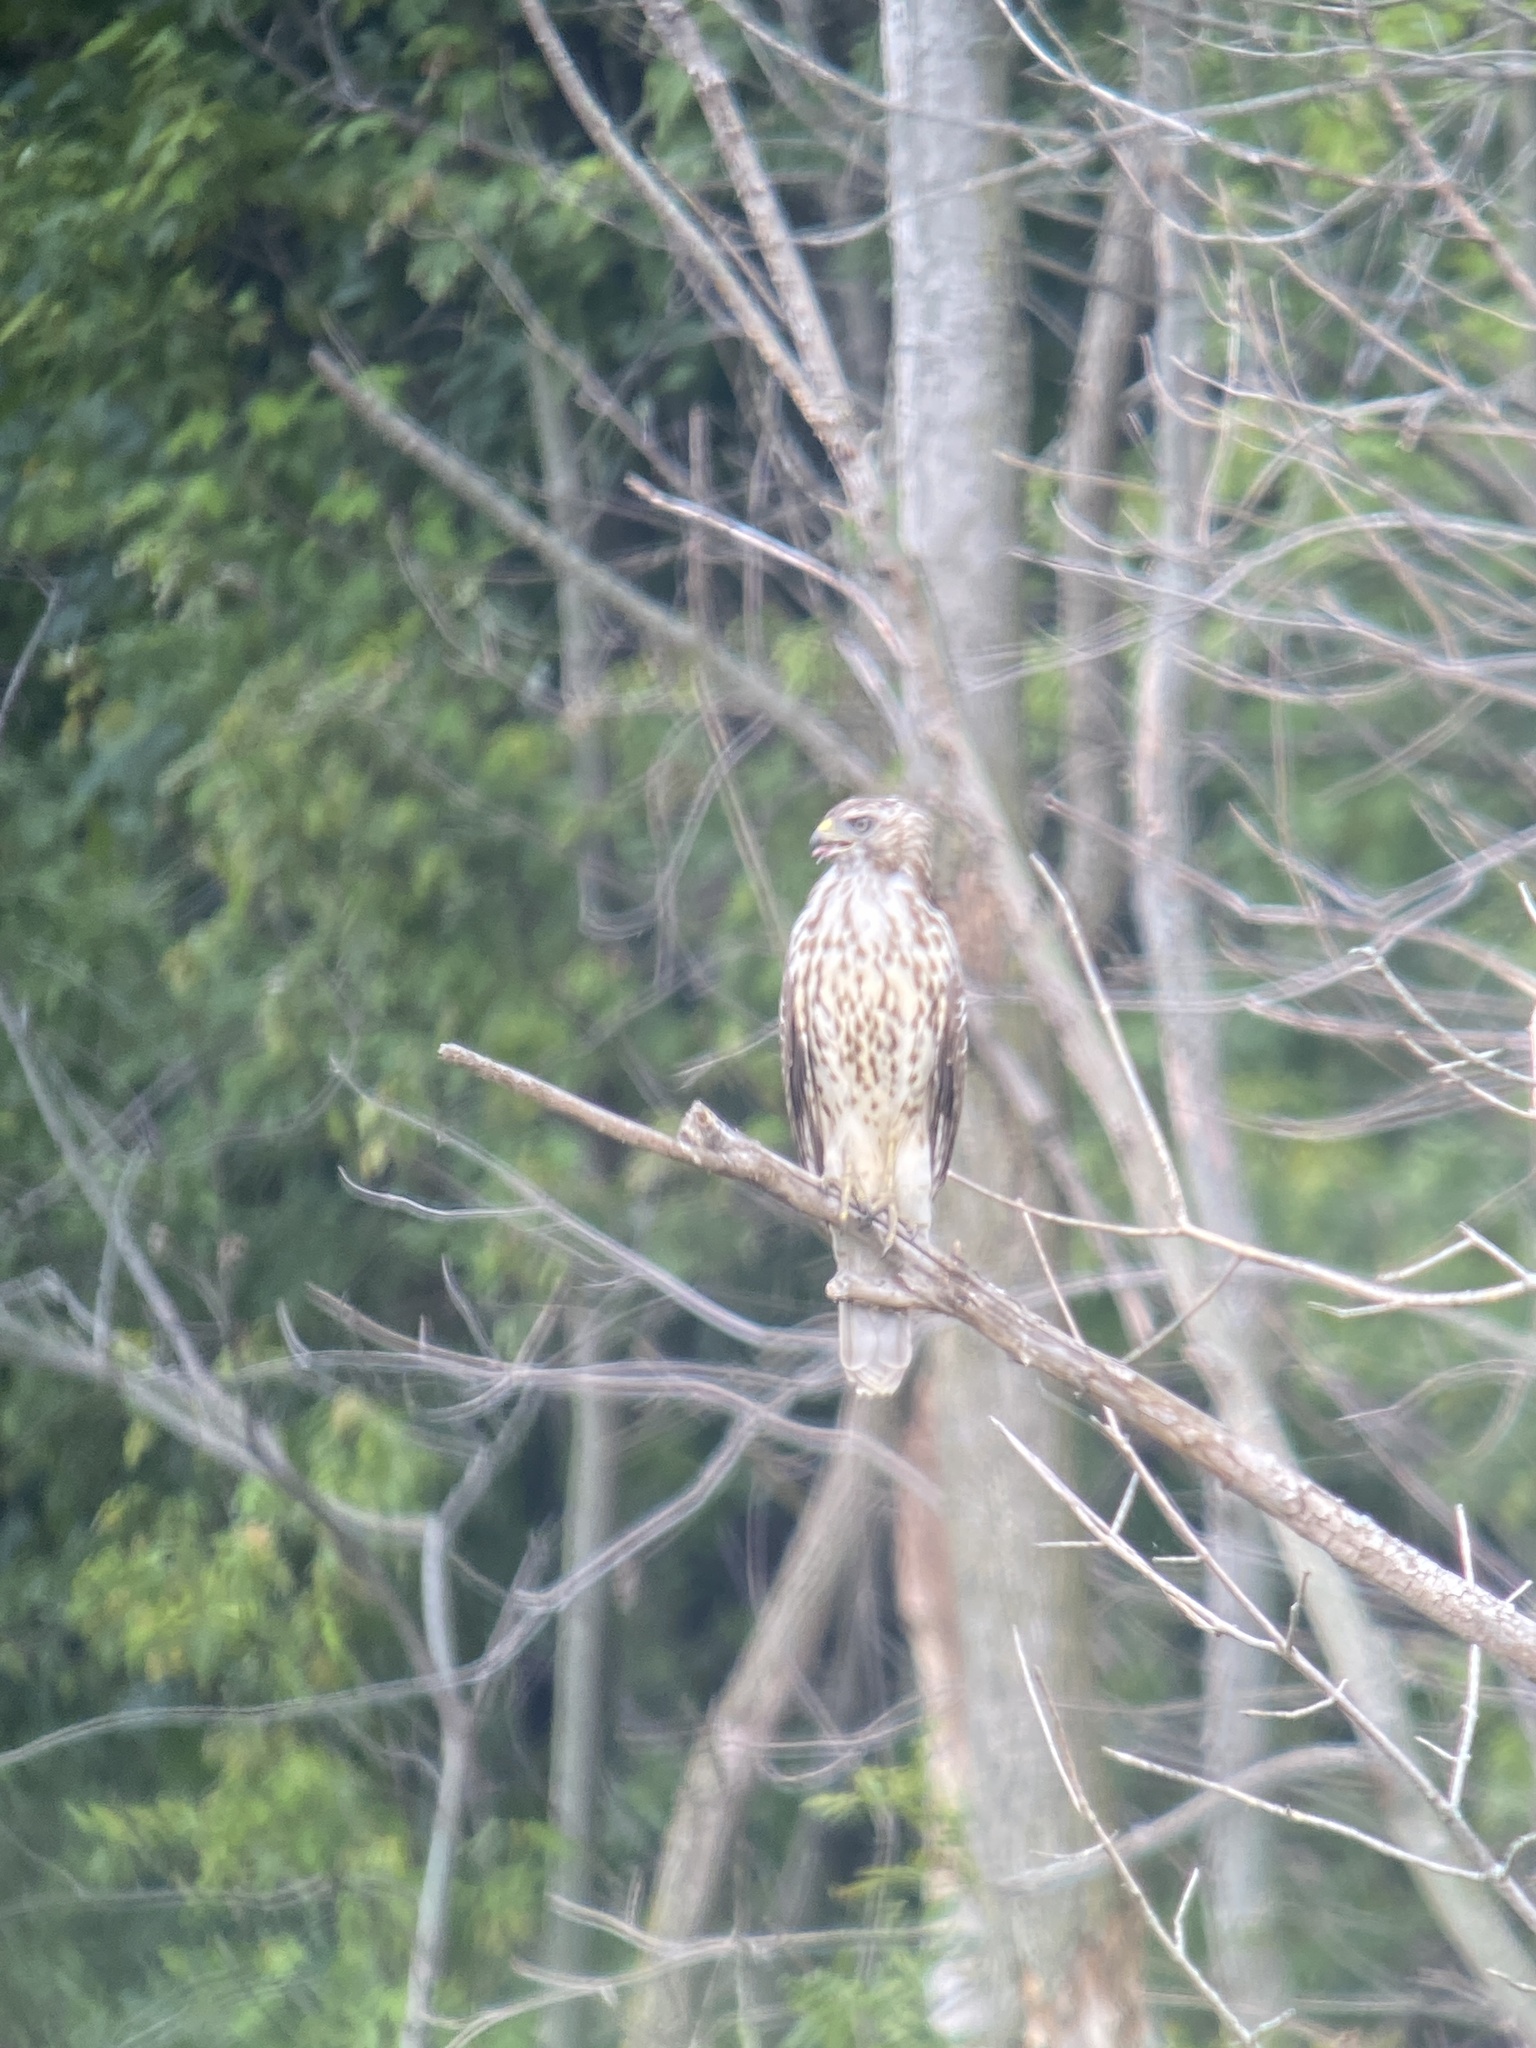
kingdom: Animalia
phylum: Chordata
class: Aves
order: Accipitriformes
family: Accipitridae
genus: Buteo
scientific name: Buteo lineatus
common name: Red-shouldered hawk
